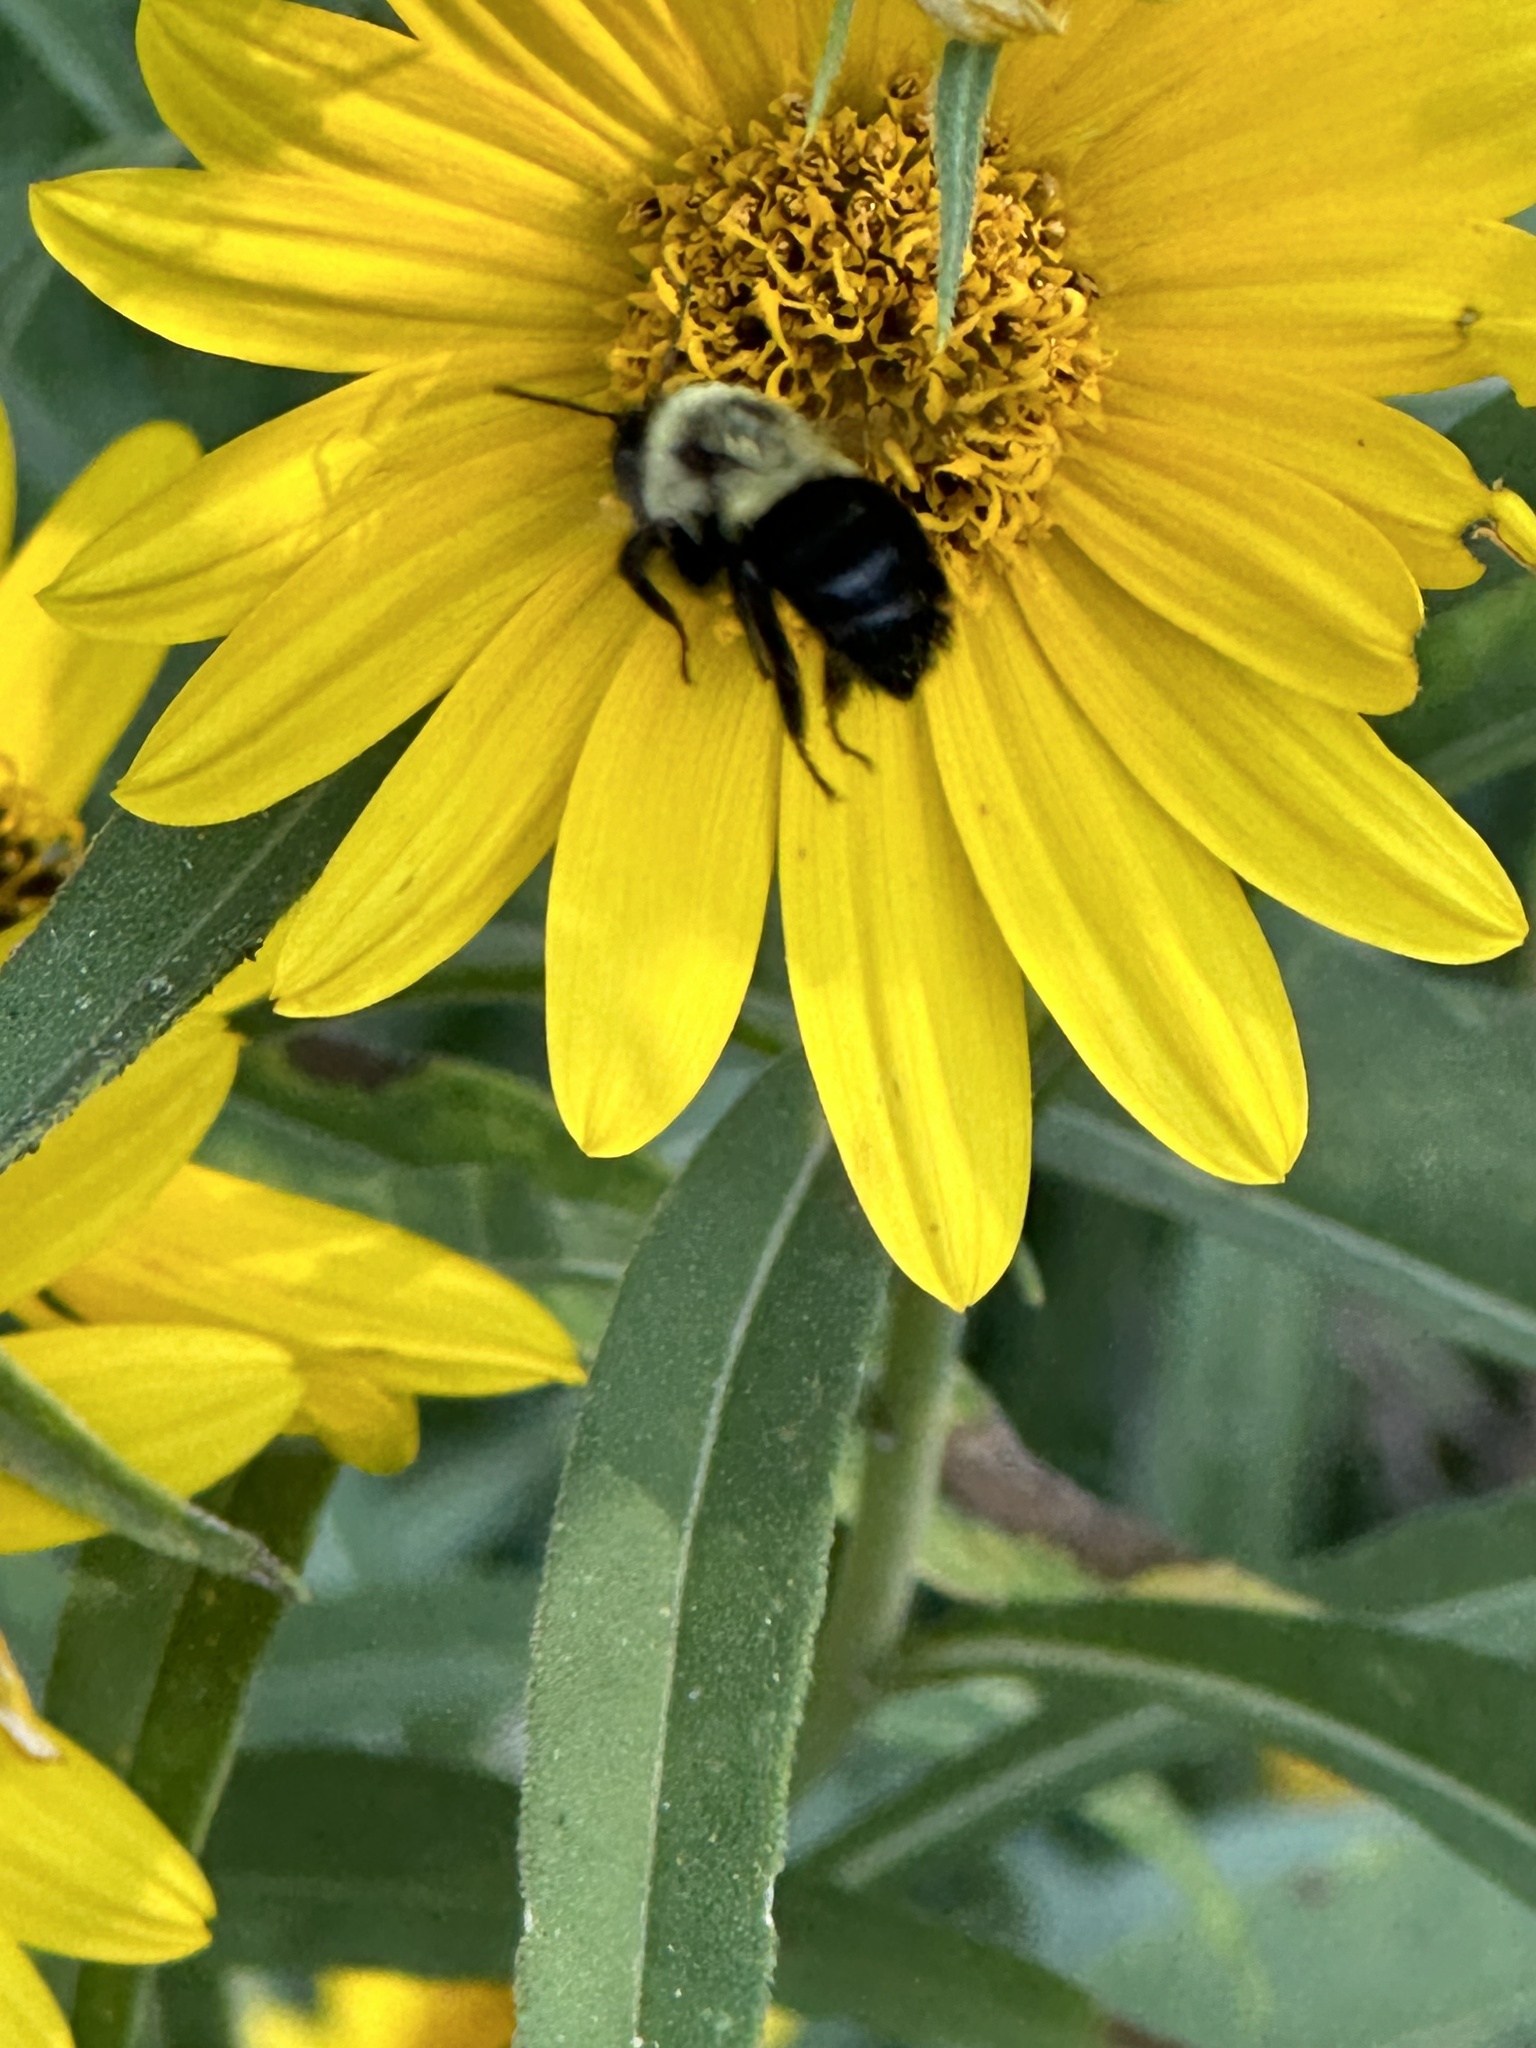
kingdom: Animalia
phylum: Arthropoda
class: Insecta
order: Hymenoptera
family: Apidae
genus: Bombus
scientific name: Bombus impatiens
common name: Common eastern bumble bee
